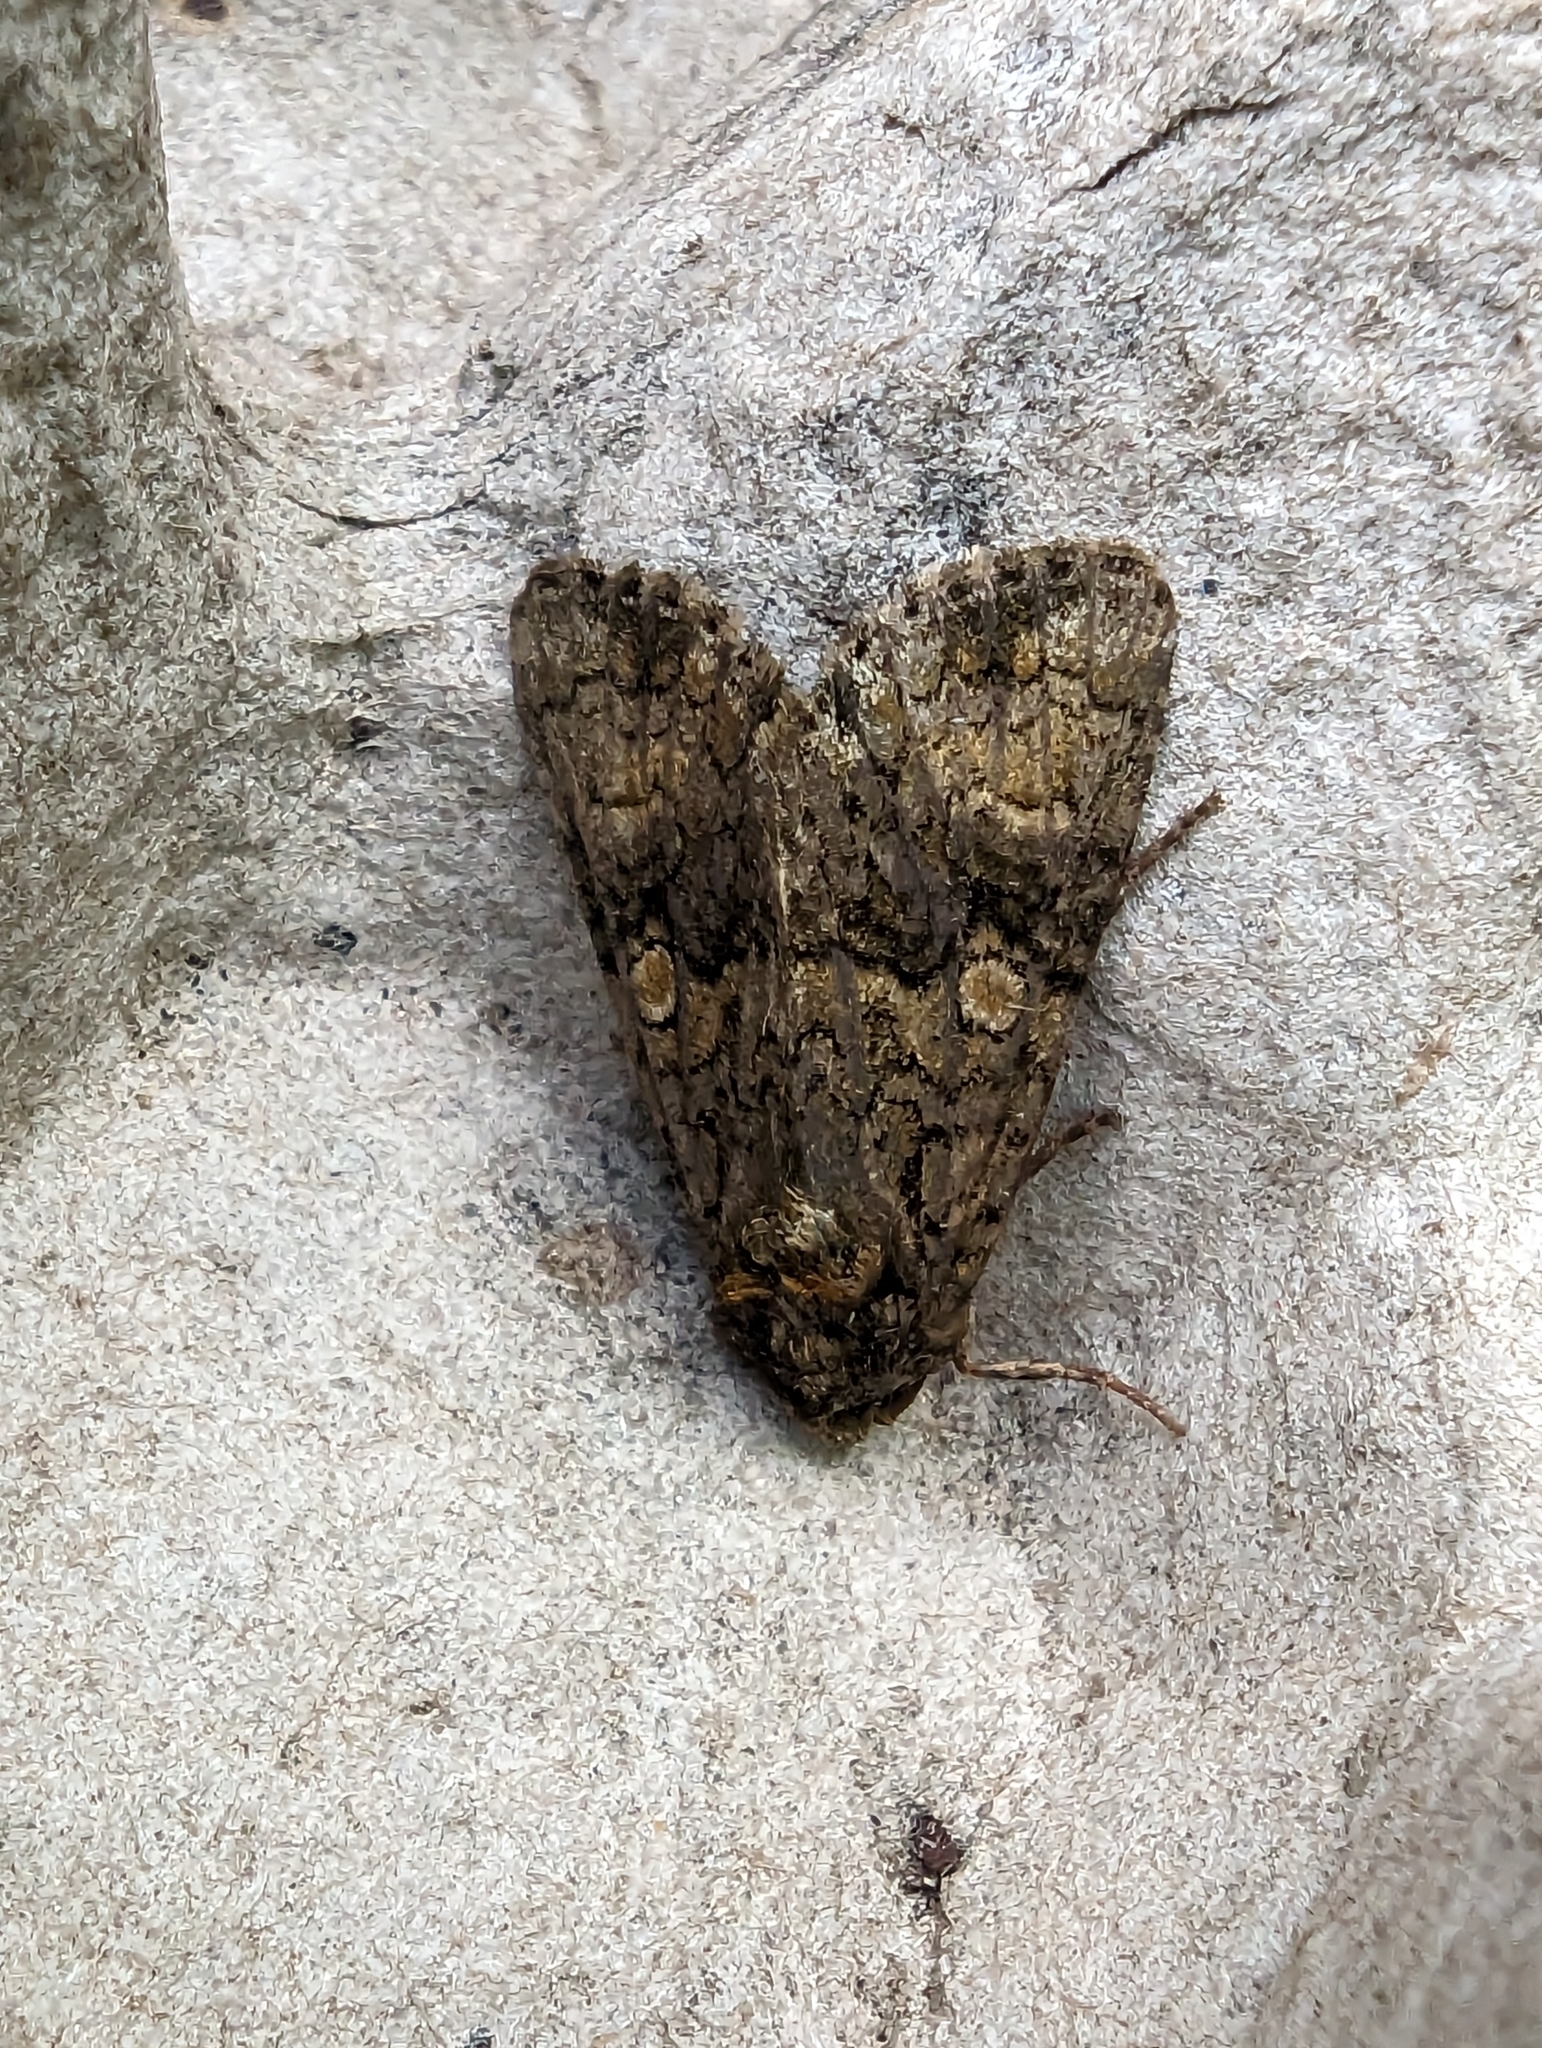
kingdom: Animalia
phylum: Arthropoda
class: Insecta
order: Lepidoptera
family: Noctuidae
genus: Craniophora
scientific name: Craniophora ligustri
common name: Coronet
